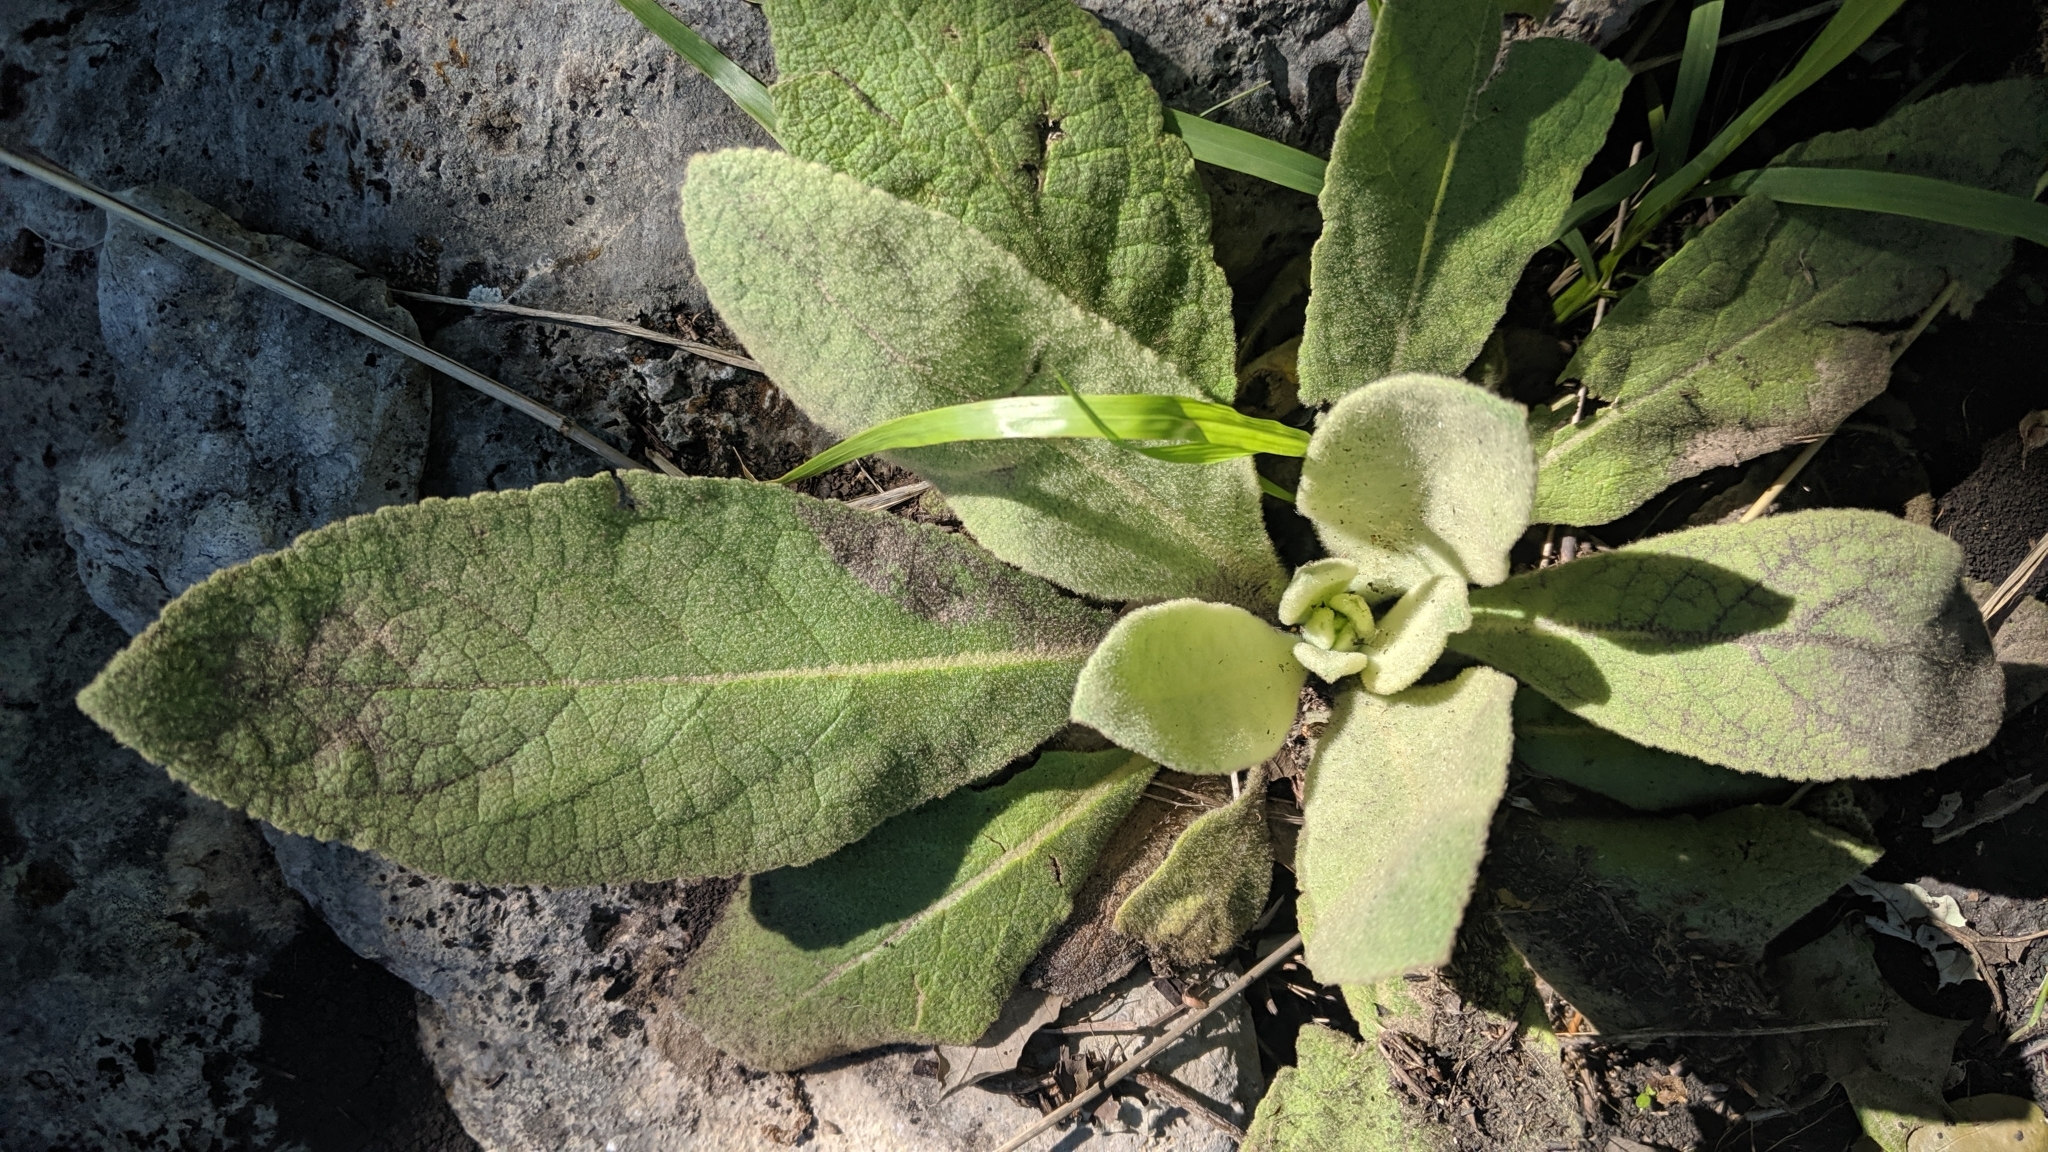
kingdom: Plantae
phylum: Tracheophyta
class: Magnoliopsida
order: Lamiales
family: Scrophulariaceae
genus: Verbascum
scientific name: Verbascum thapsus
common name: Common mullein
